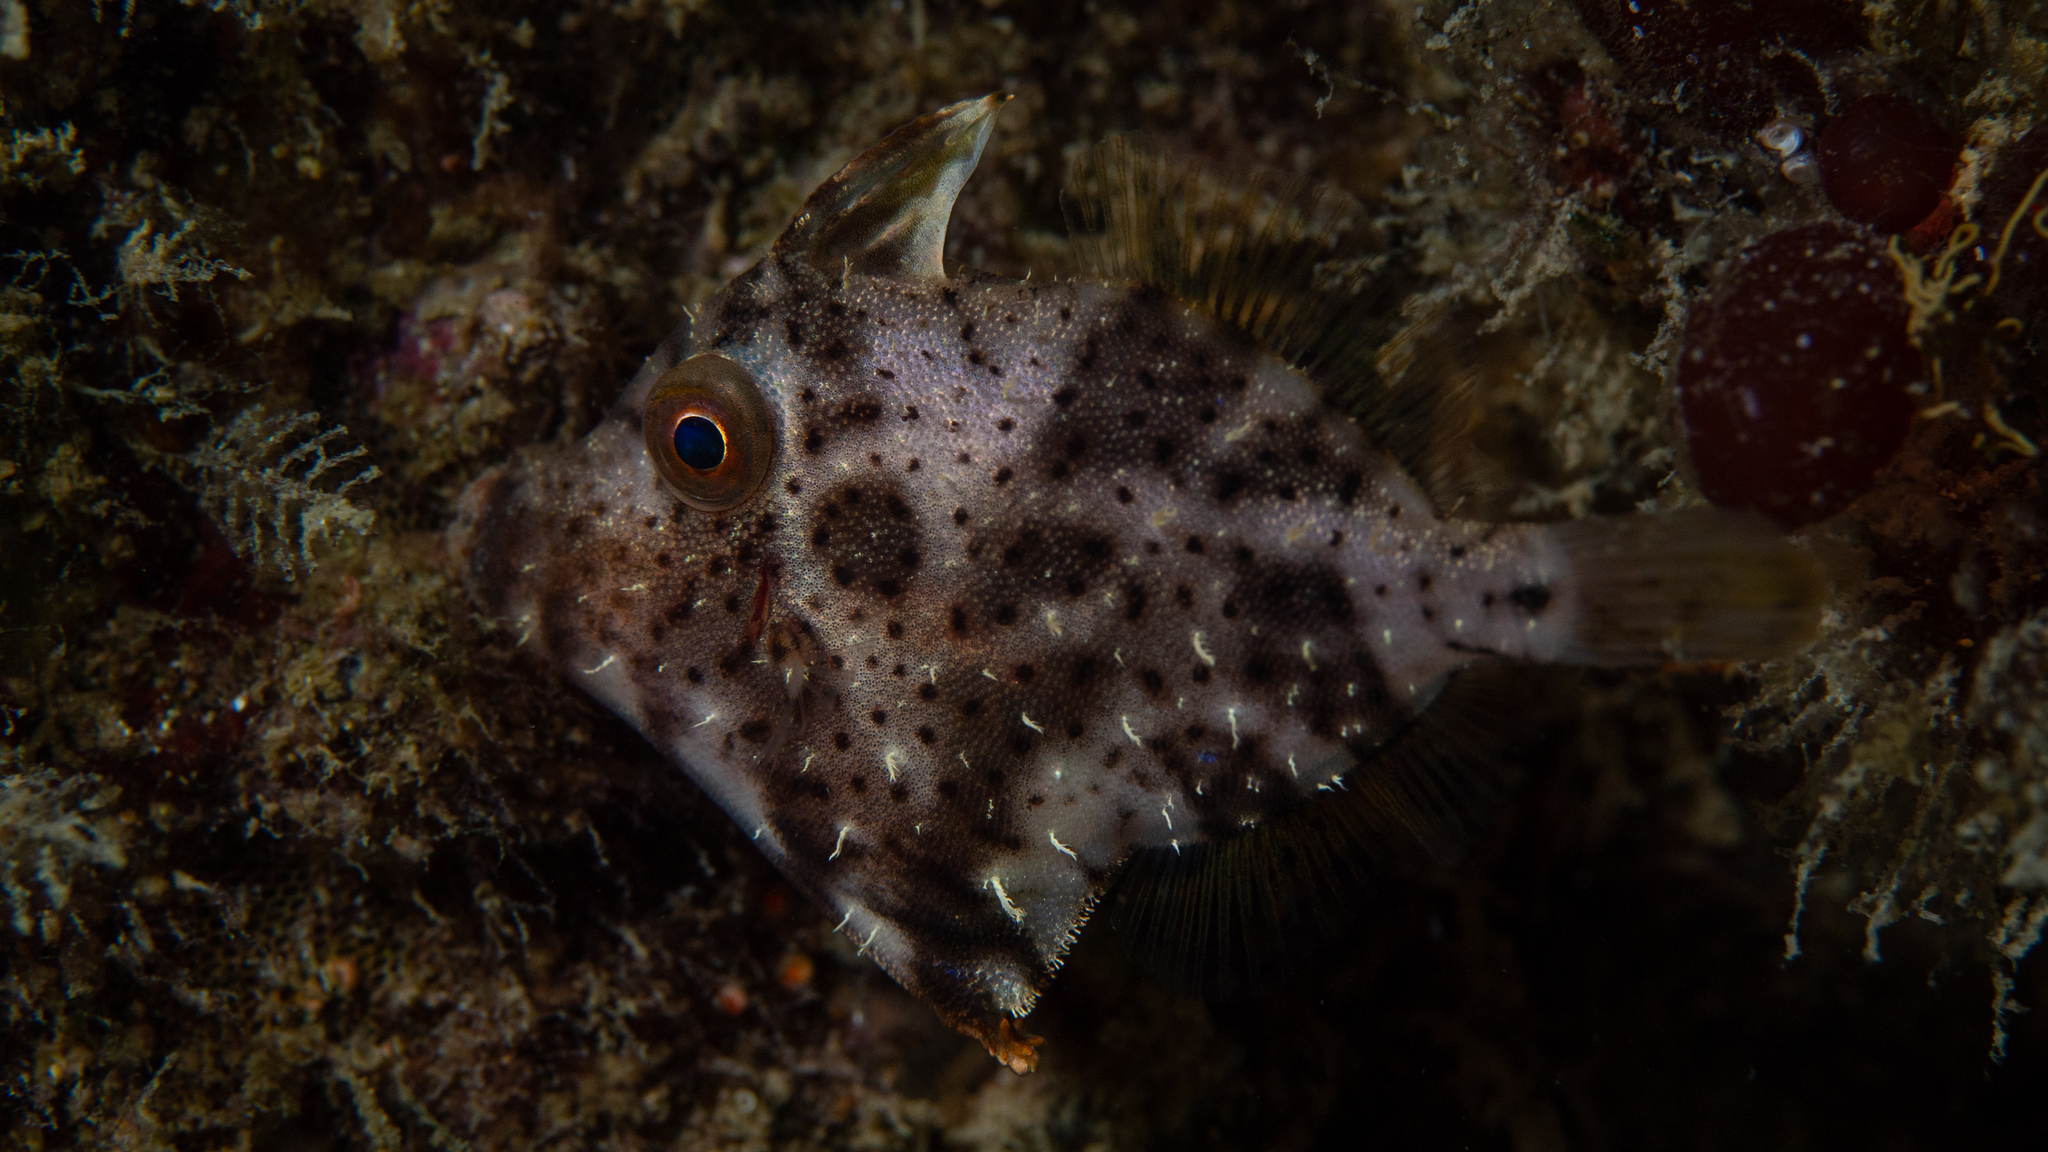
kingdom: Animalia
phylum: Chordata
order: Tetraodontiformes
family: Monacanthidae
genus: Scobinichthys
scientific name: Scobinichthys granulatus
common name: Rough leatherjacket
